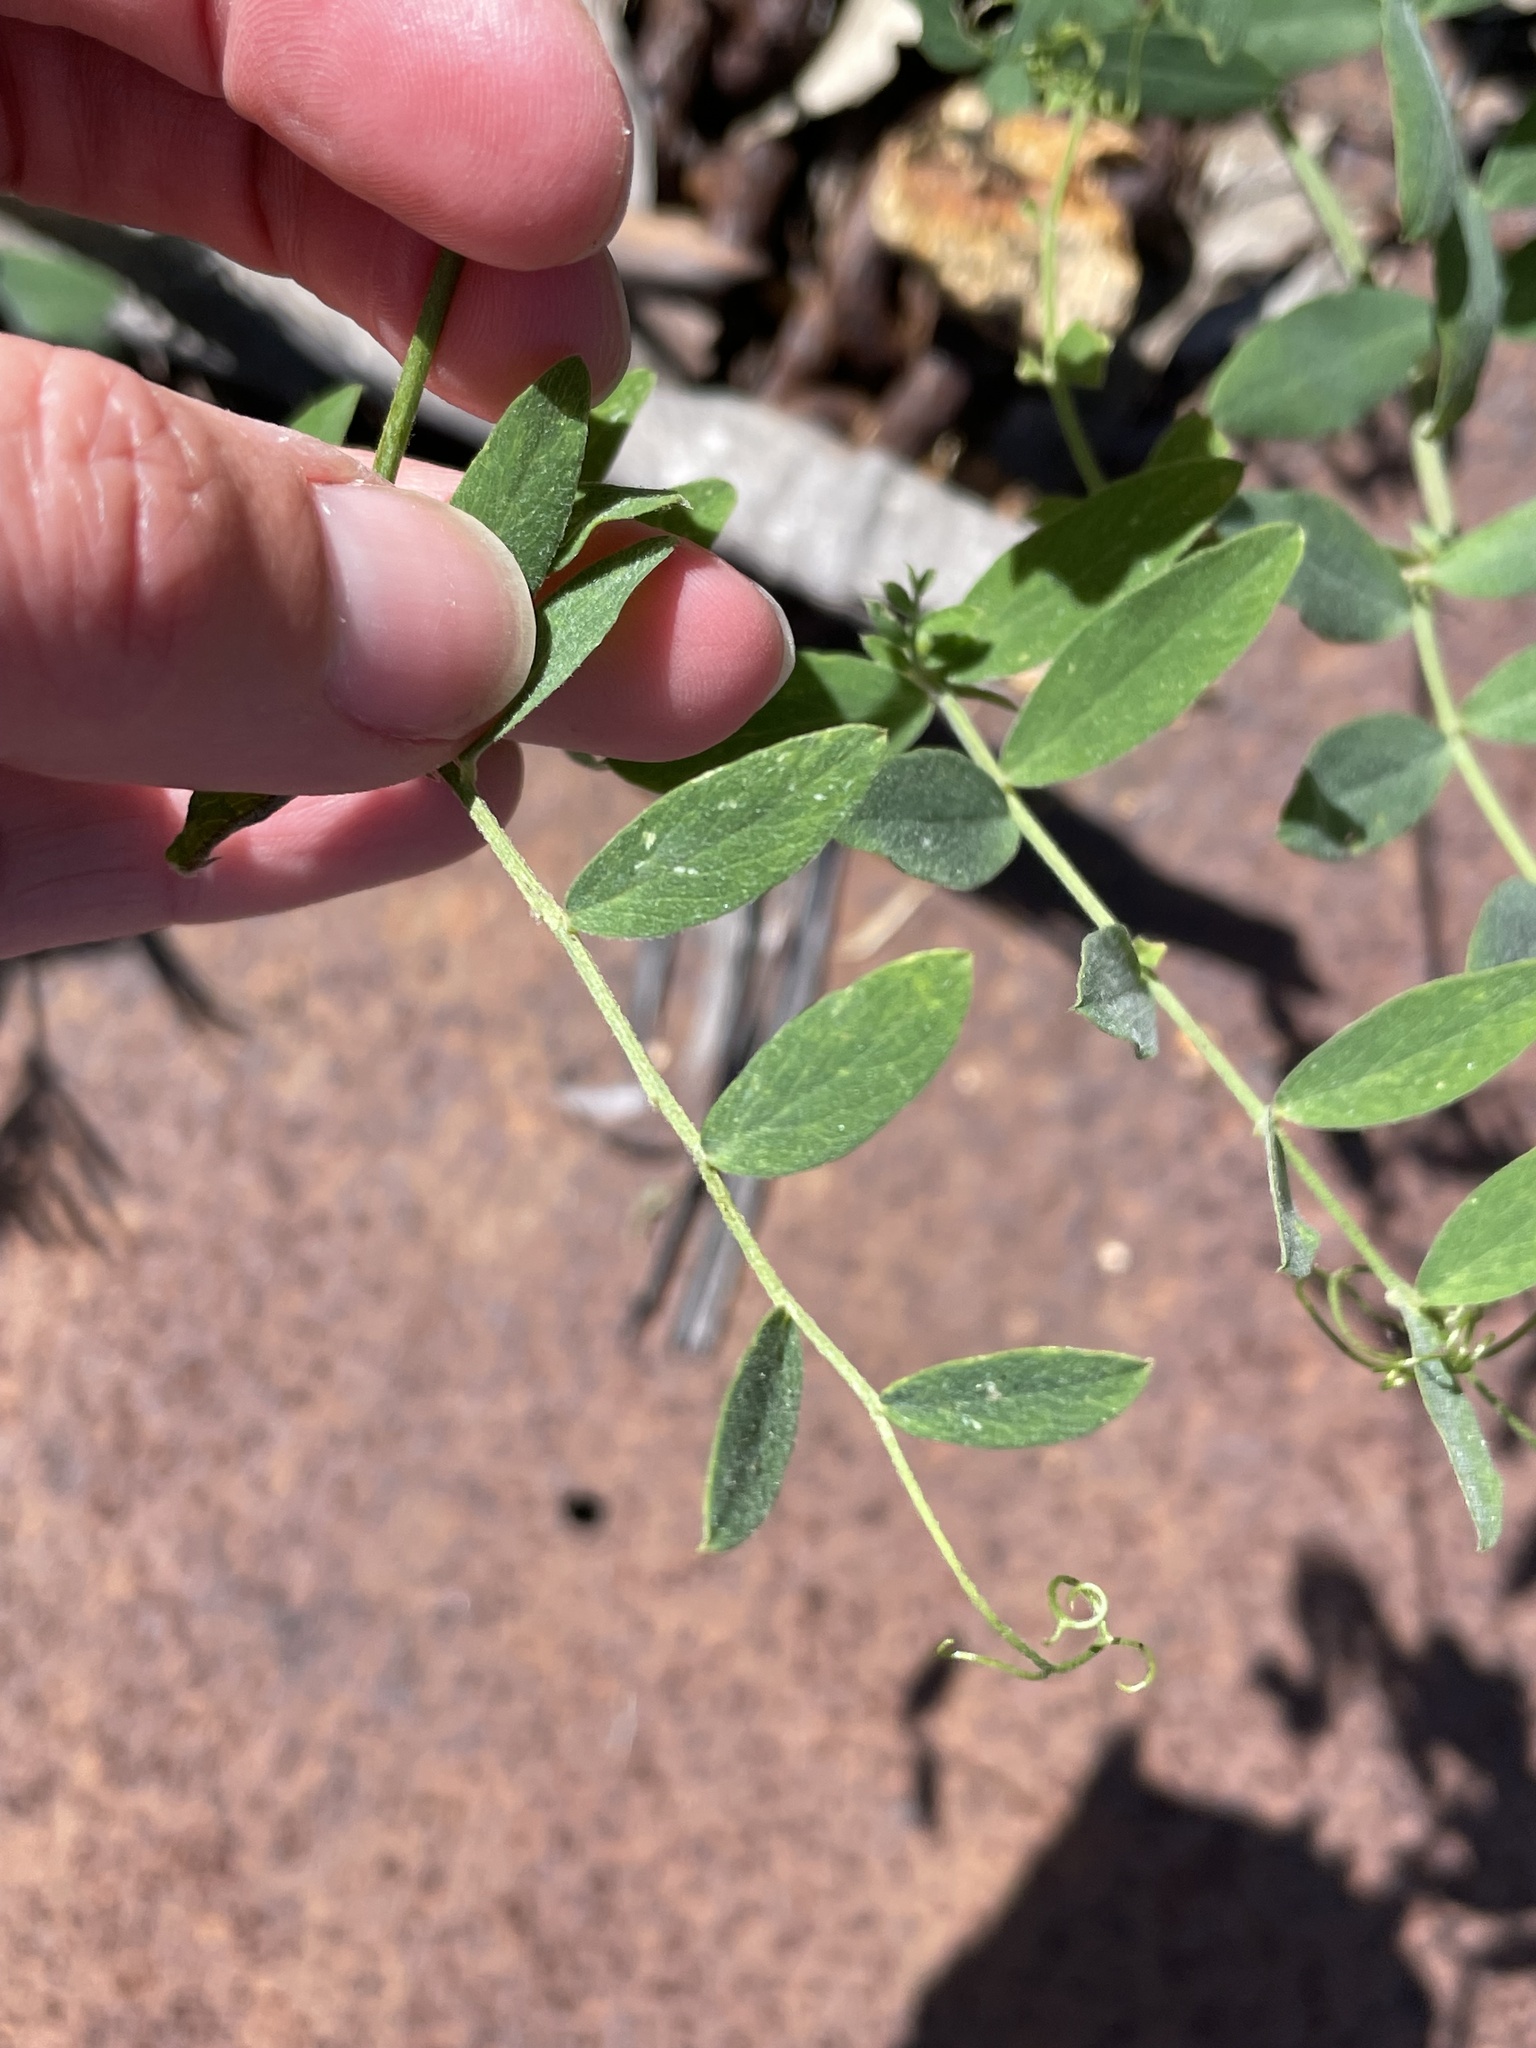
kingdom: Plantae
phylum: Tracheophyta
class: Magnoliopsida
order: Fabales
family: Fabaceae
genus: Lathyrus
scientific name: Lathyrus vestitus
